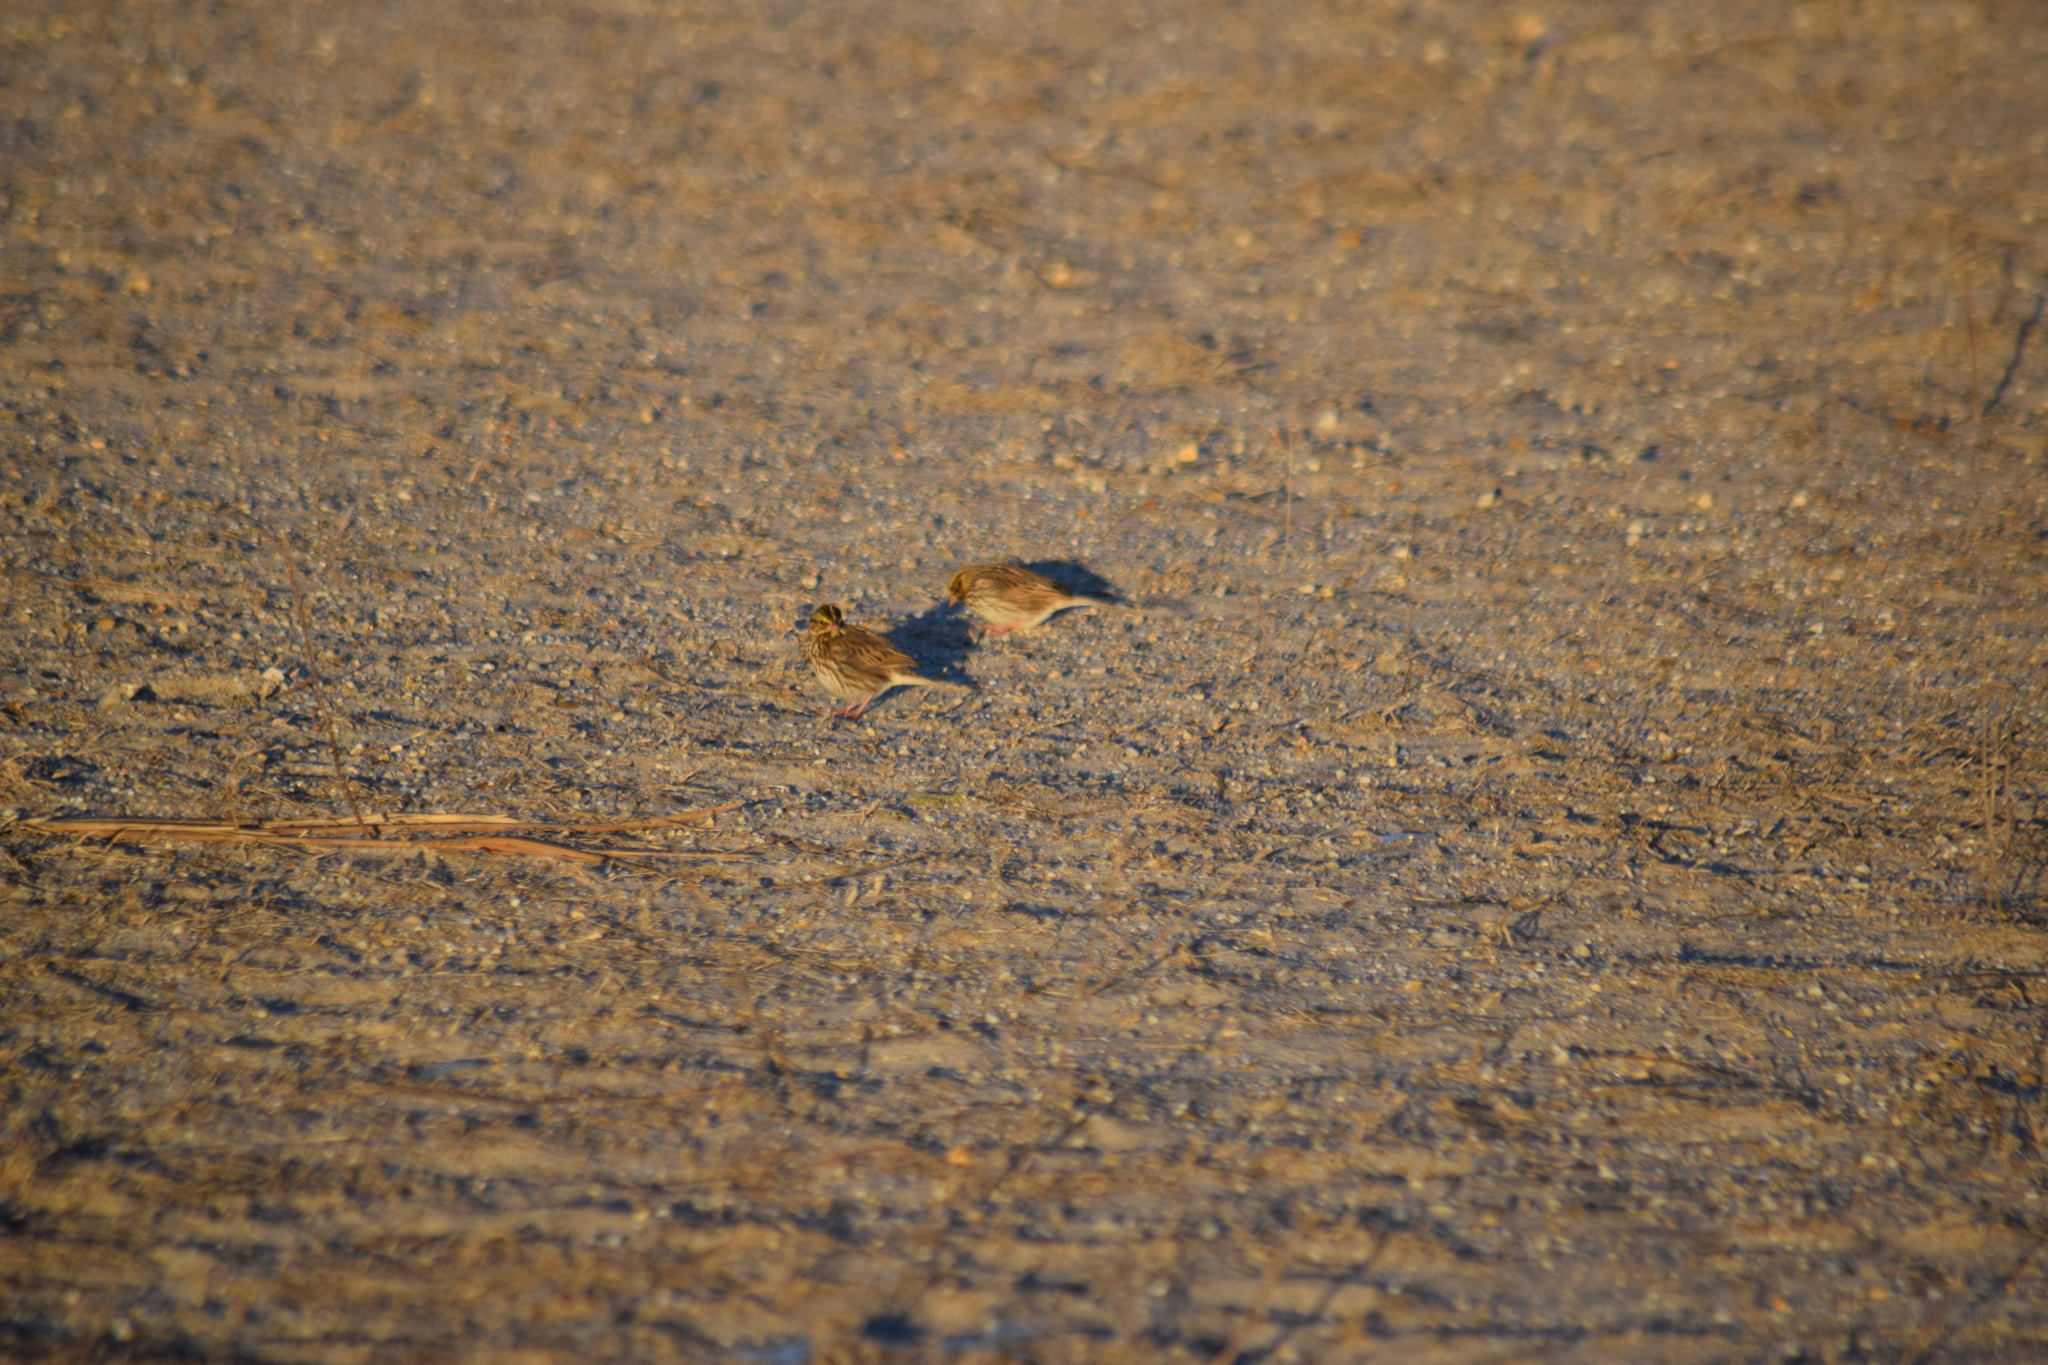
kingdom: Animalia
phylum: Chordata
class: Aves
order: Passeriformes
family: Passerellidae
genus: Passerculus
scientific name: Passerculus sandwichensis
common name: Savannah sparrow
